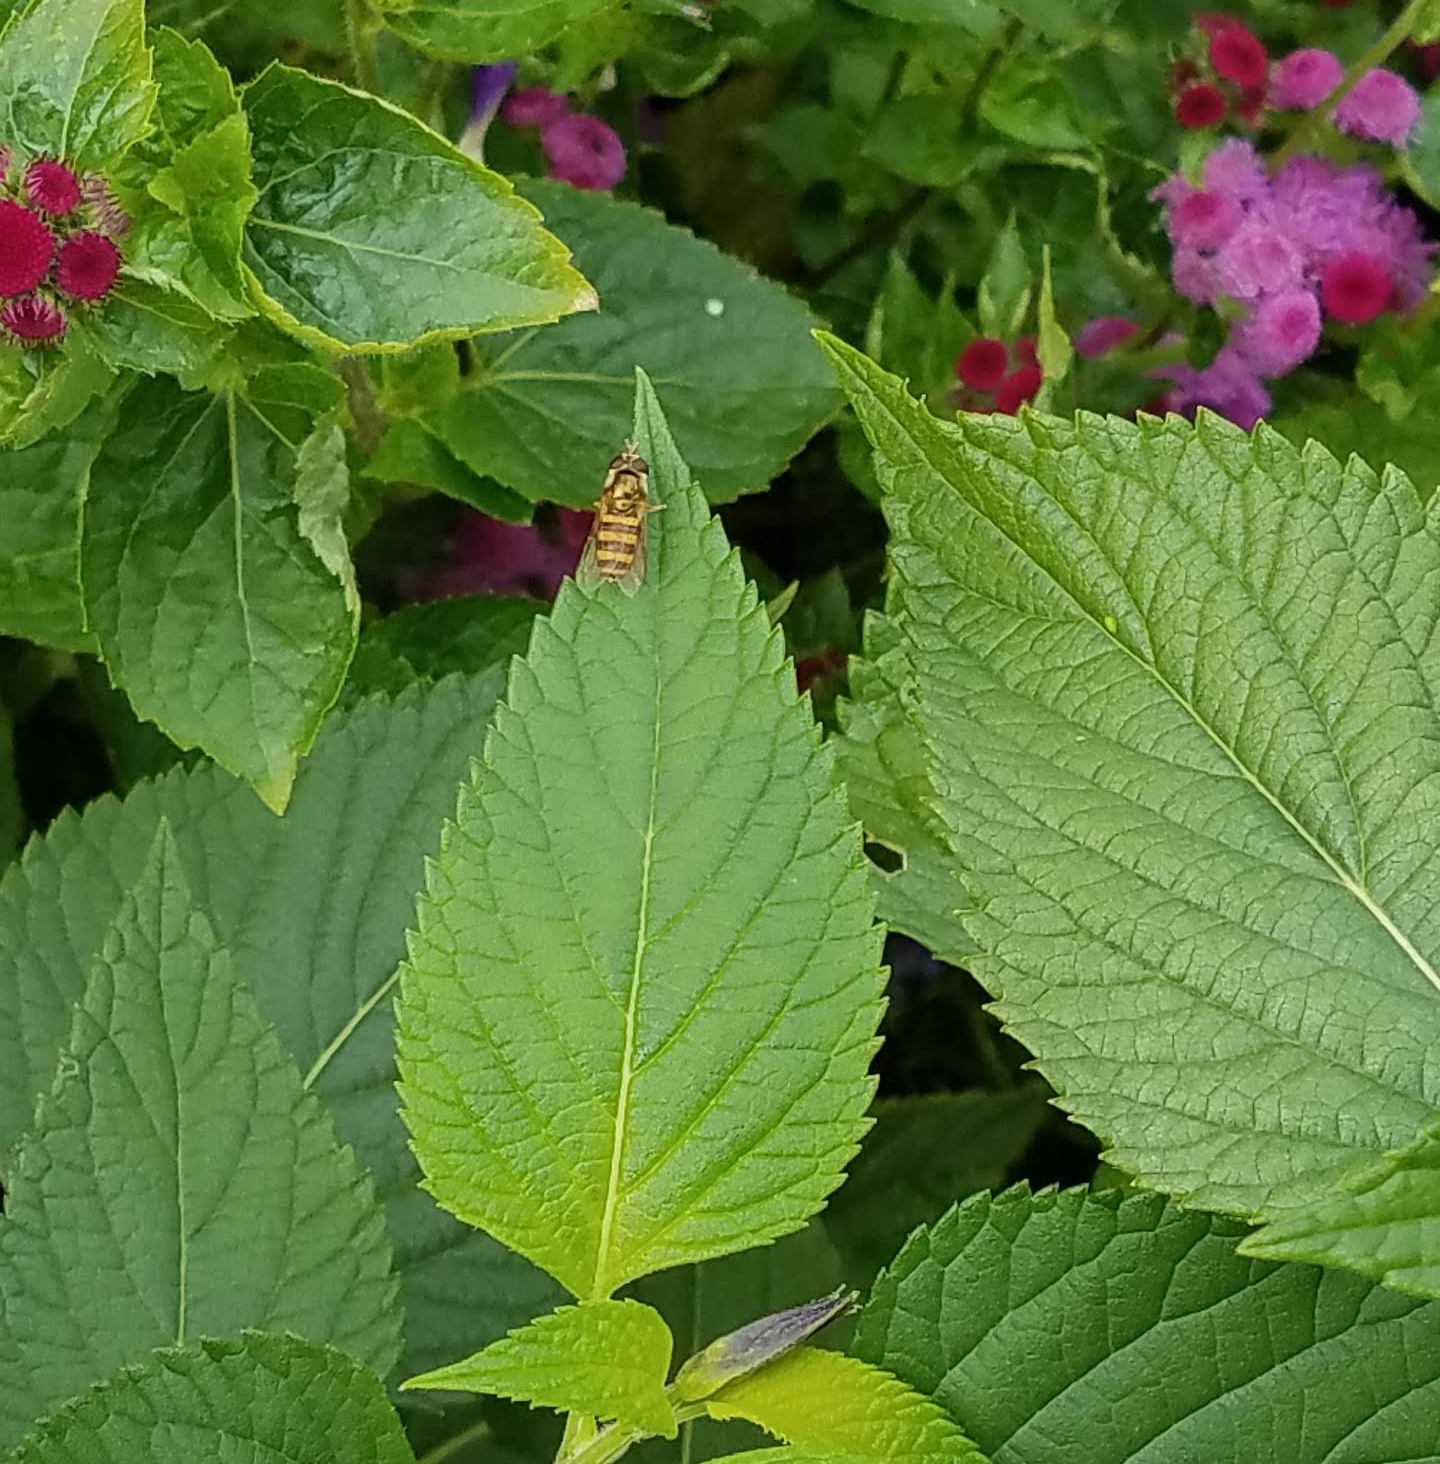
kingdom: Animalia
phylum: Arthropoda
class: Insecta
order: Diptera
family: Syrphidae
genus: Eupeodes
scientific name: Eupeodes
